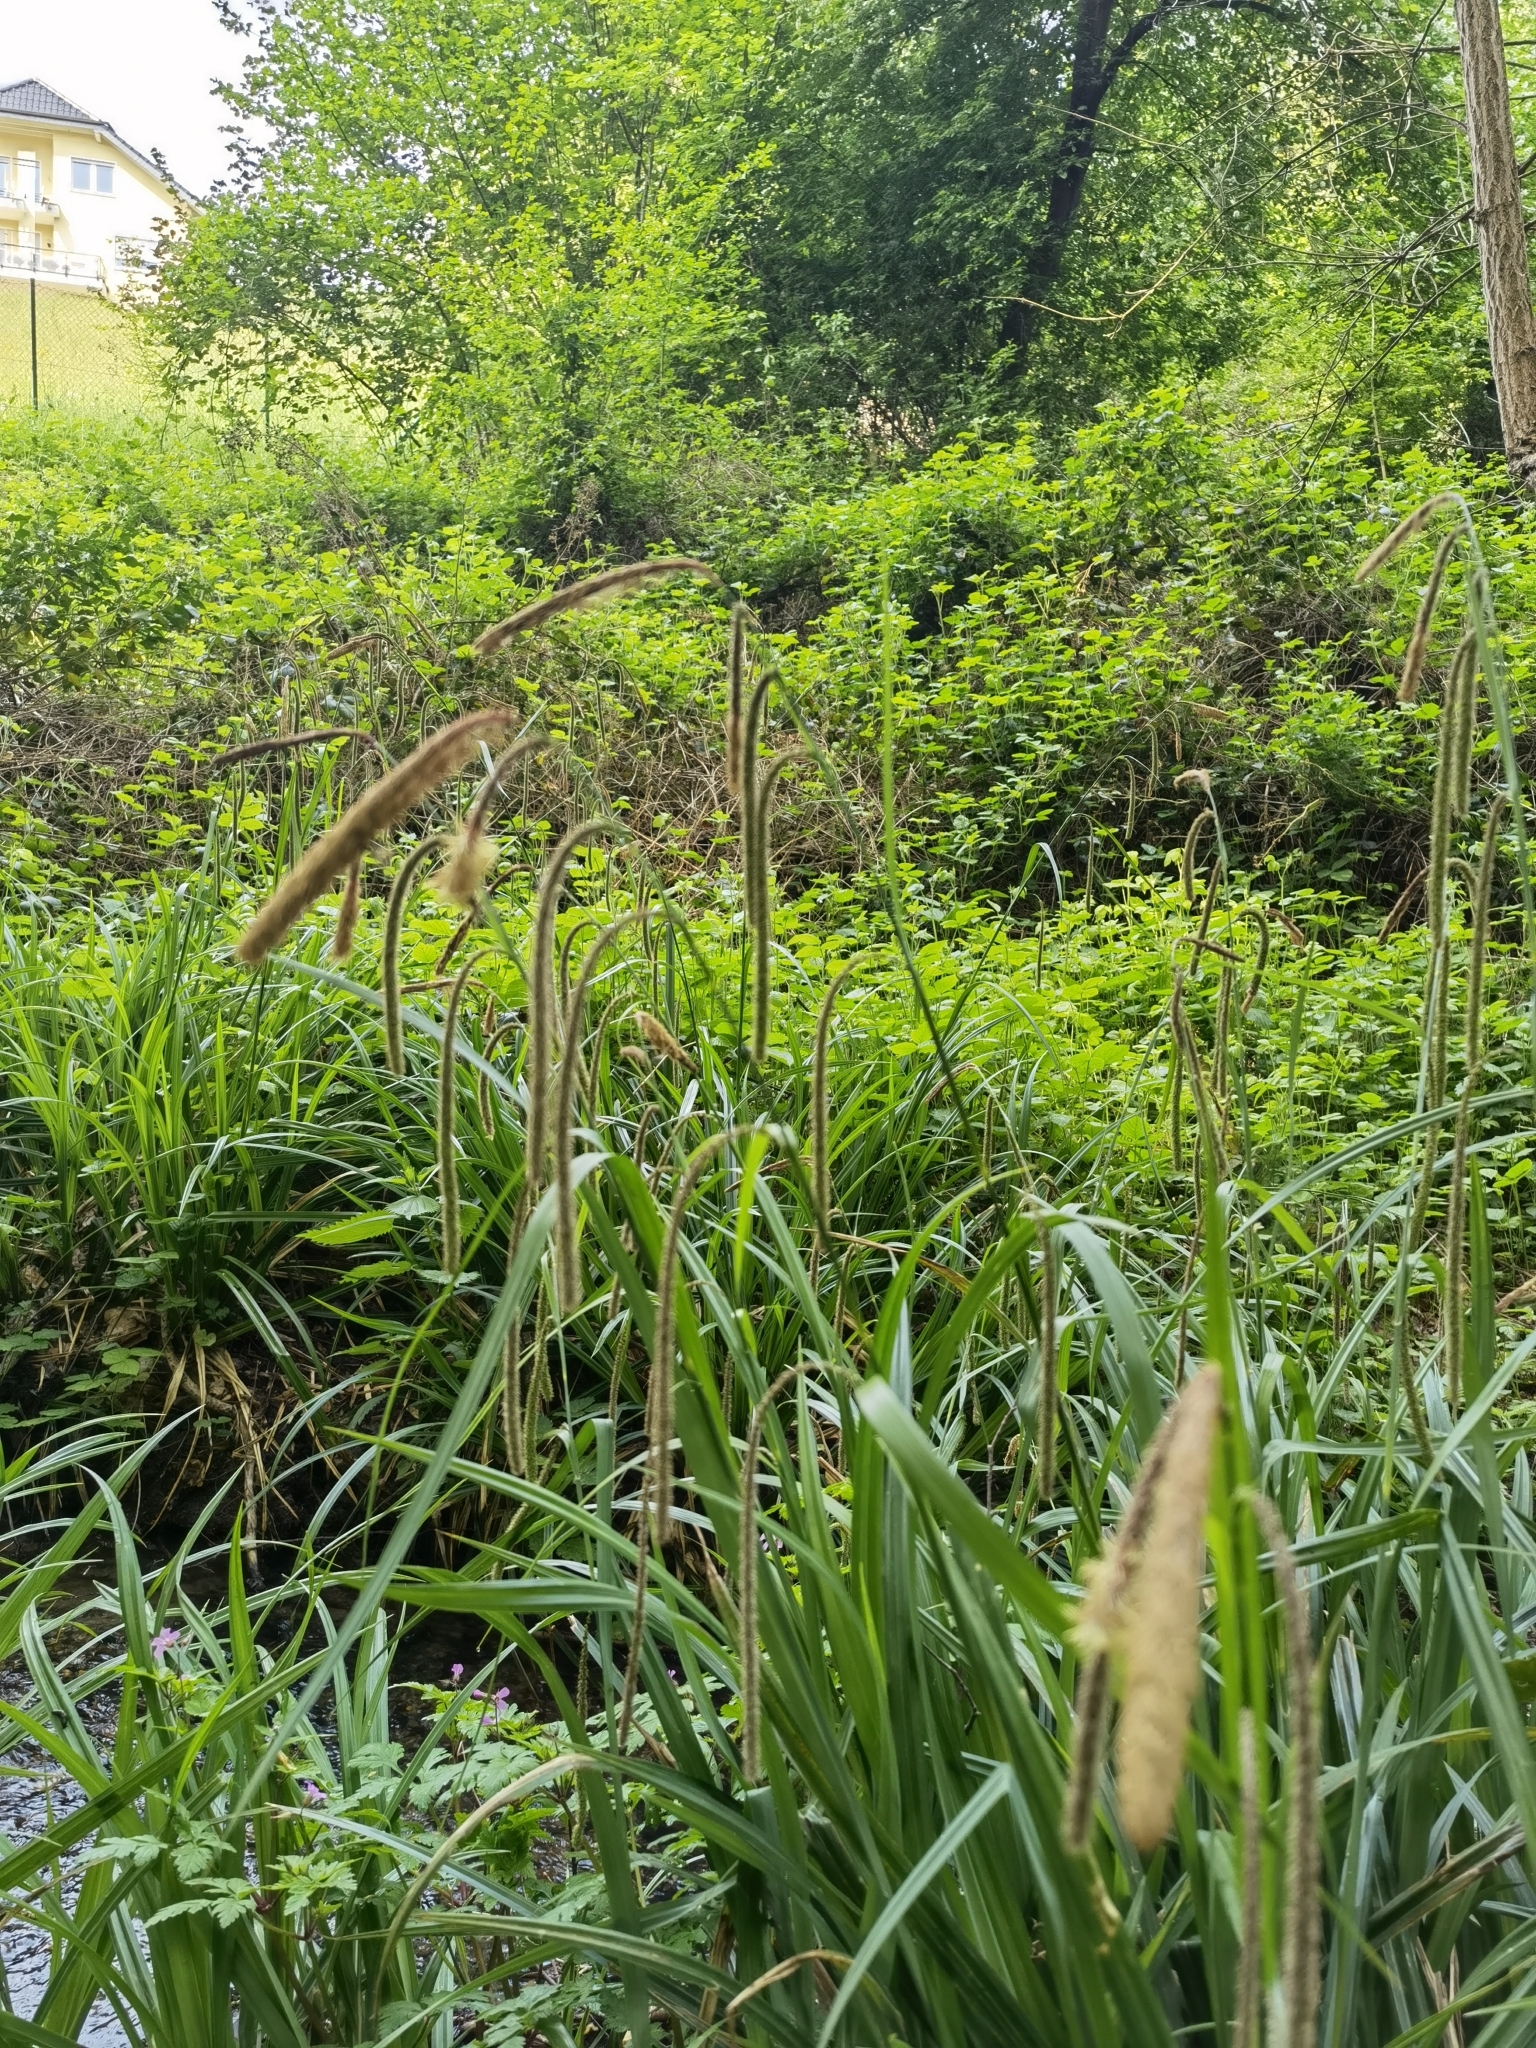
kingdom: Plantae
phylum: Tracheophyta
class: Liliopsida
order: Poales
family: Cyperaceae
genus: Carex
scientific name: Carex pendula
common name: Pendulous sedge
